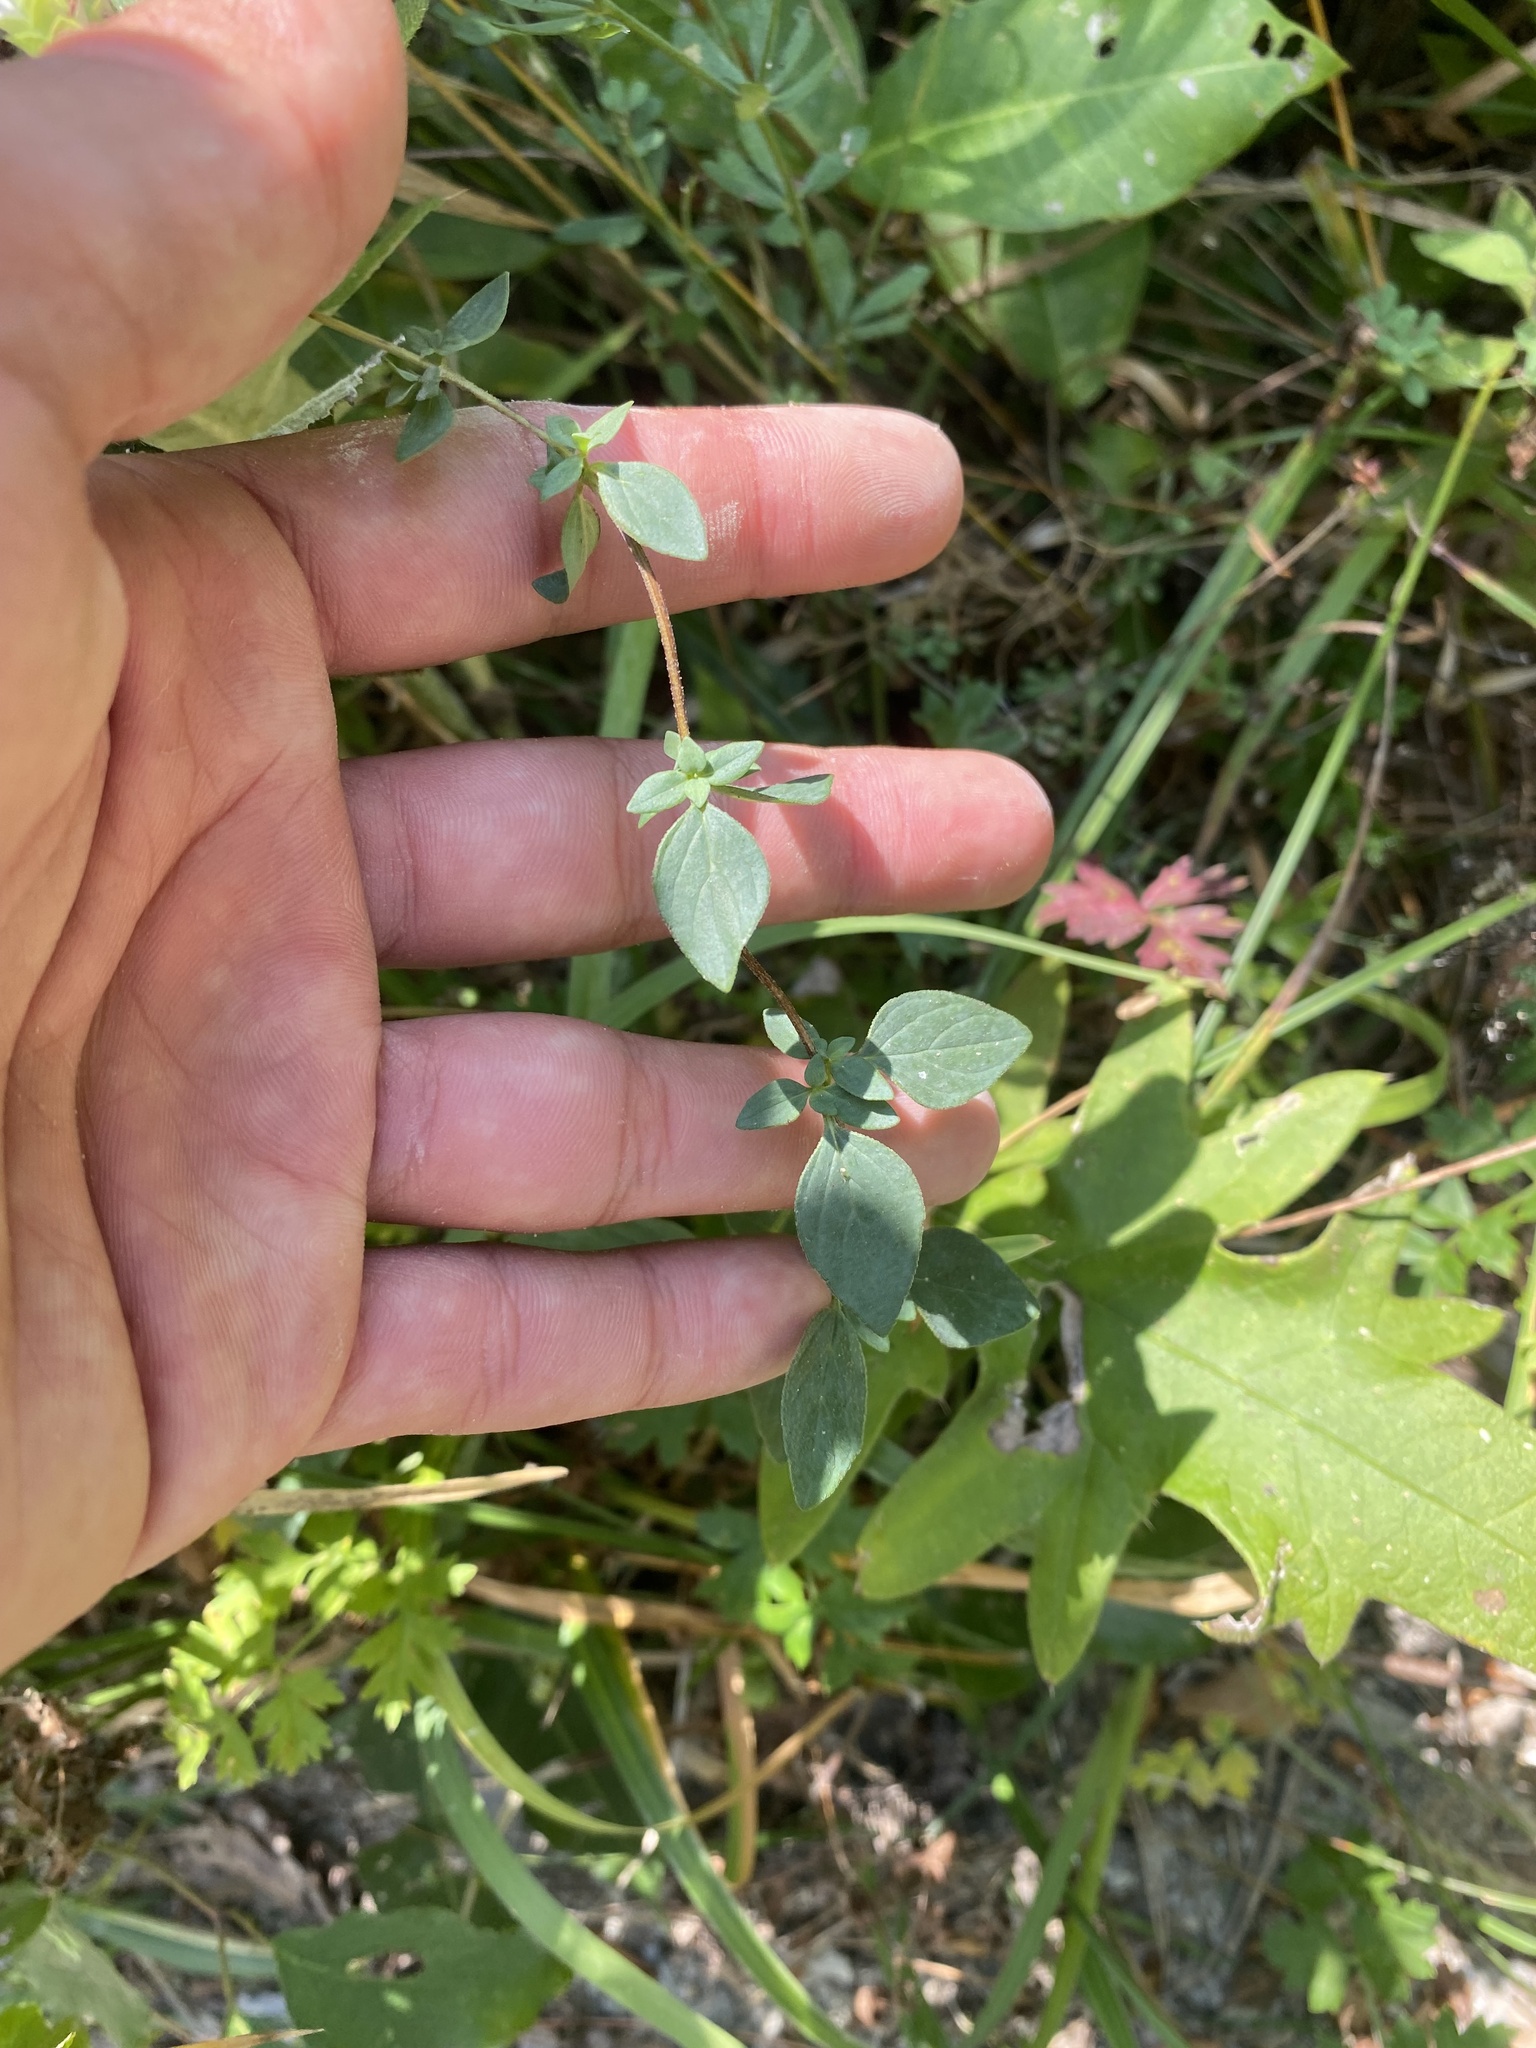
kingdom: Plantae
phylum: Tracheophyta
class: Magnoliopsida
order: Lamiales
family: Lamiaceae
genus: Origanum
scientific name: Origanum vulgare
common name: Wild marjoram
